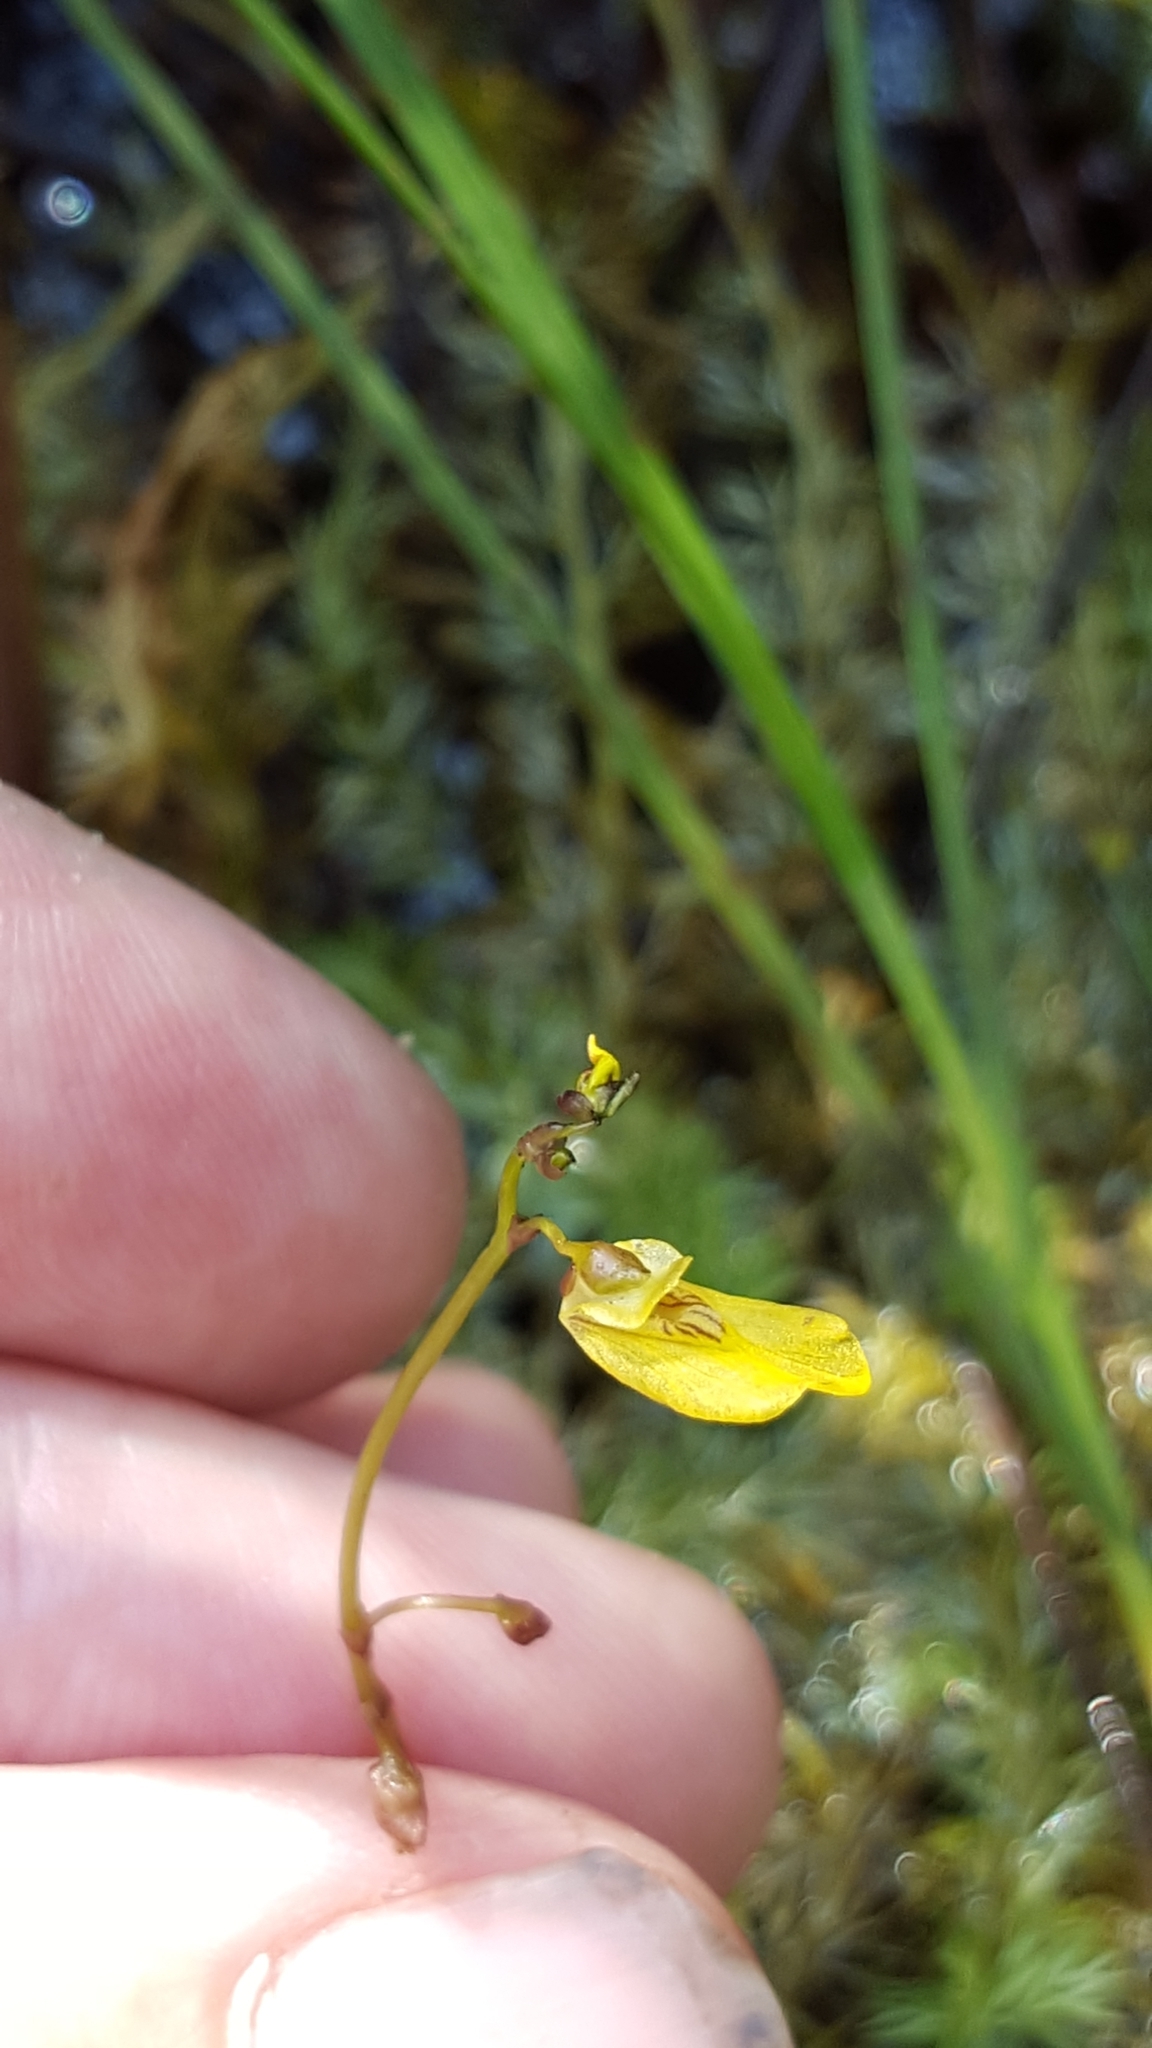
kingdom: Plantae
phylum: Tracheophyta
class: Magnoliopsida
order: Lamiales
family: Lentibulariaceae
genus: Utricularia
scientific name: Utricularia minor
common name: Lesser bladderwort
